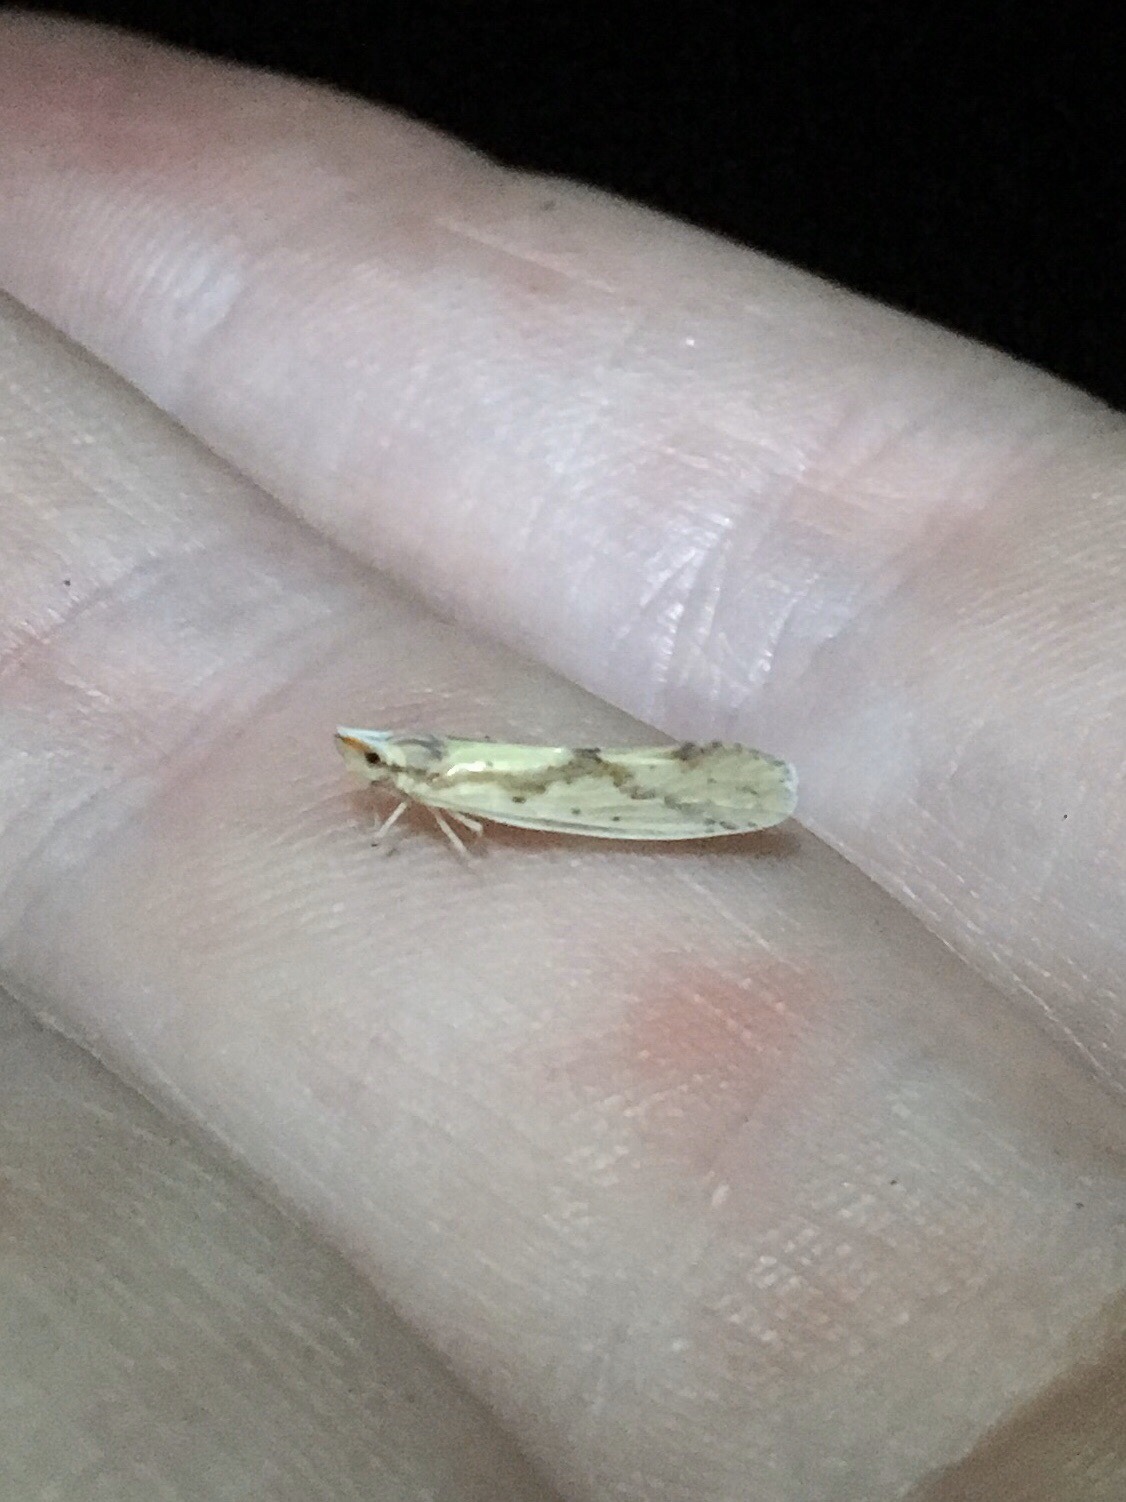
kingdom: Animalia
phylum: Arthropoda
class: Insecta
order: Hemiptera
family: Derbidae
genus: Otiocerus
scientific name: Otiocerus wolfii
